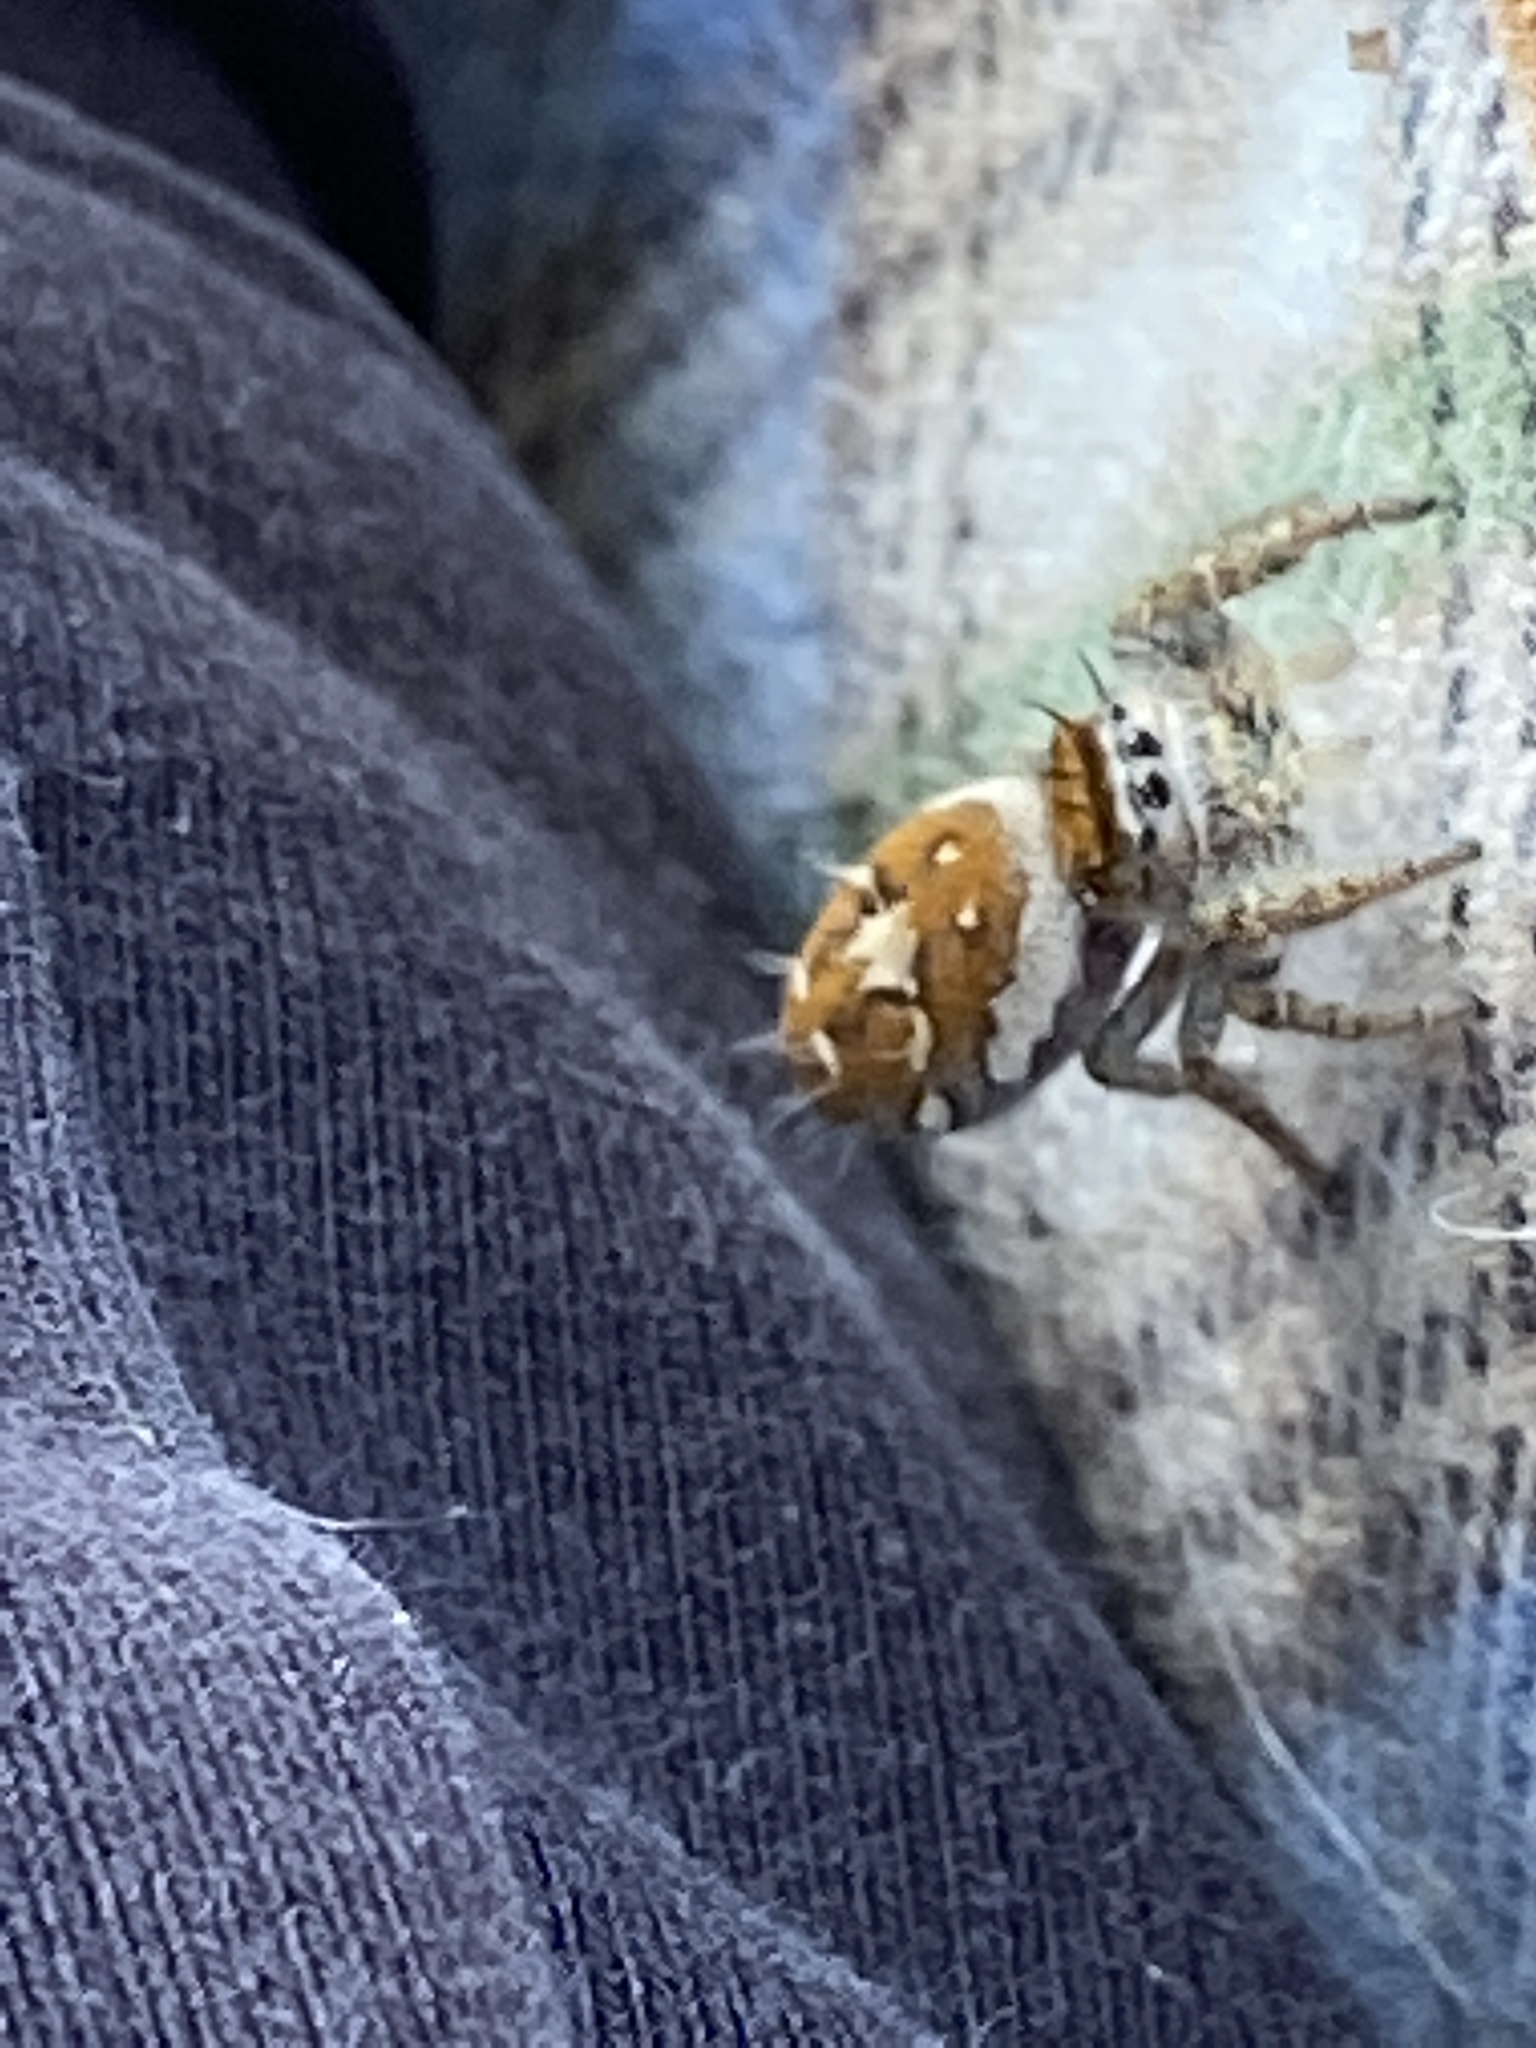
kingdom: Animalia
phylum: Arthropoda
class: Arachnida
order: Araneae
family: Salticidae
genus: Phidippus
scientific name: Phidippus carolinensis
